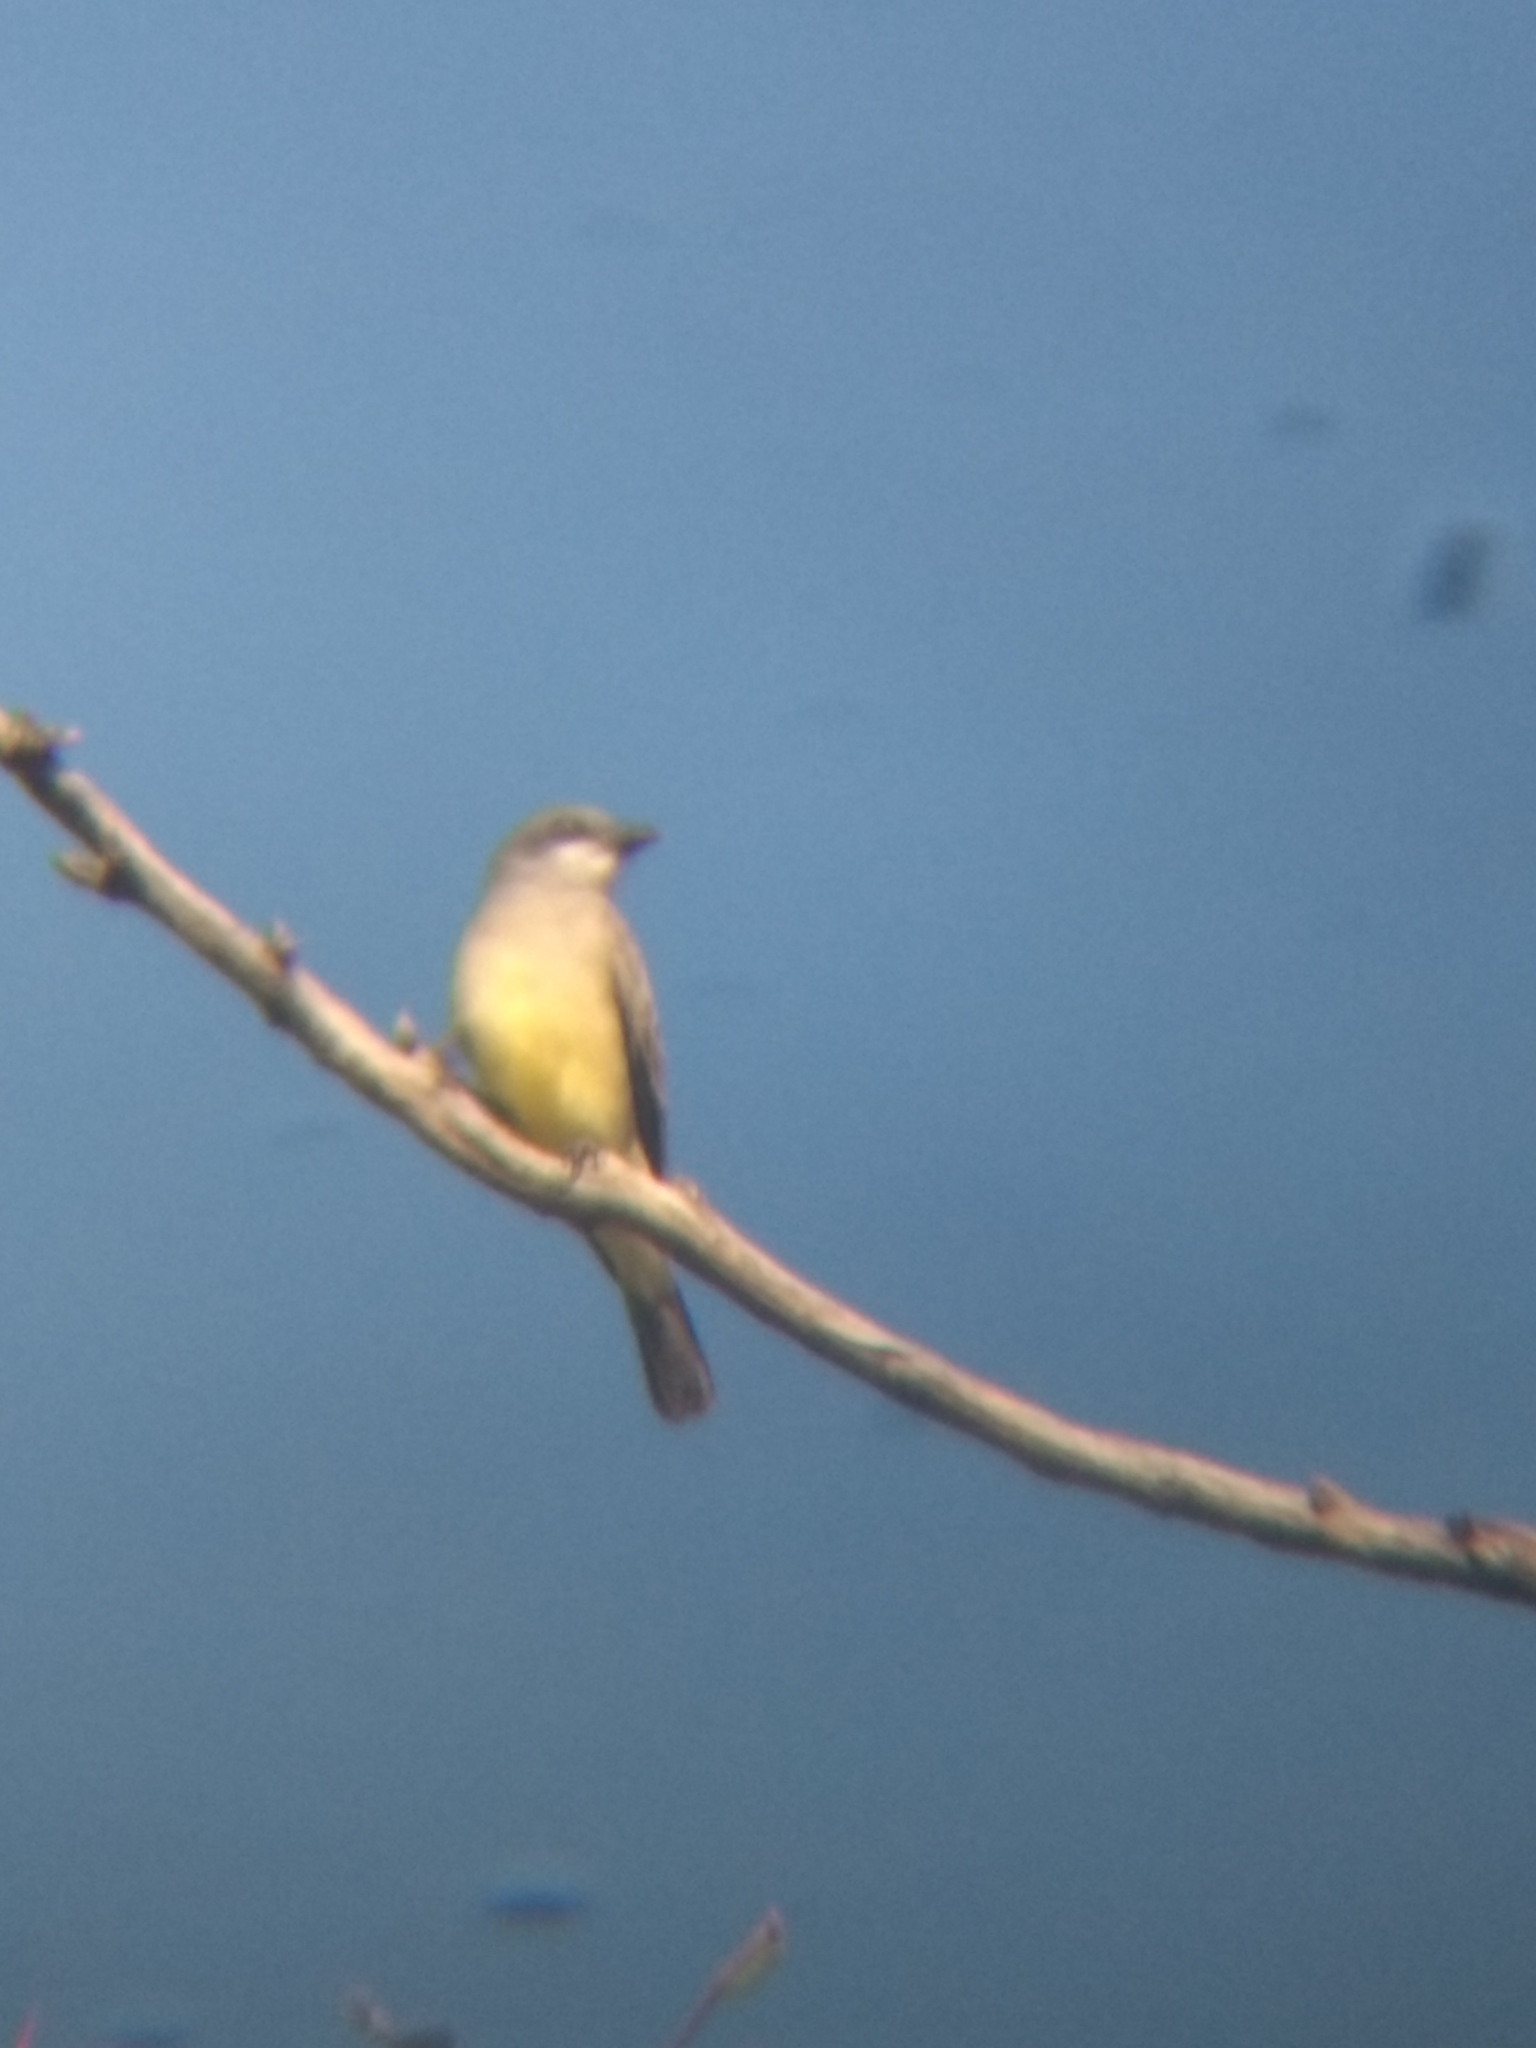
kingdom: Animalia
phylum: Chordata
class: Aves
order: Passeriformes
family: Tyrannidae
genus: Tyrannus
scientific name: Tyrannus vociferans
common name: Cassin's kingbird
